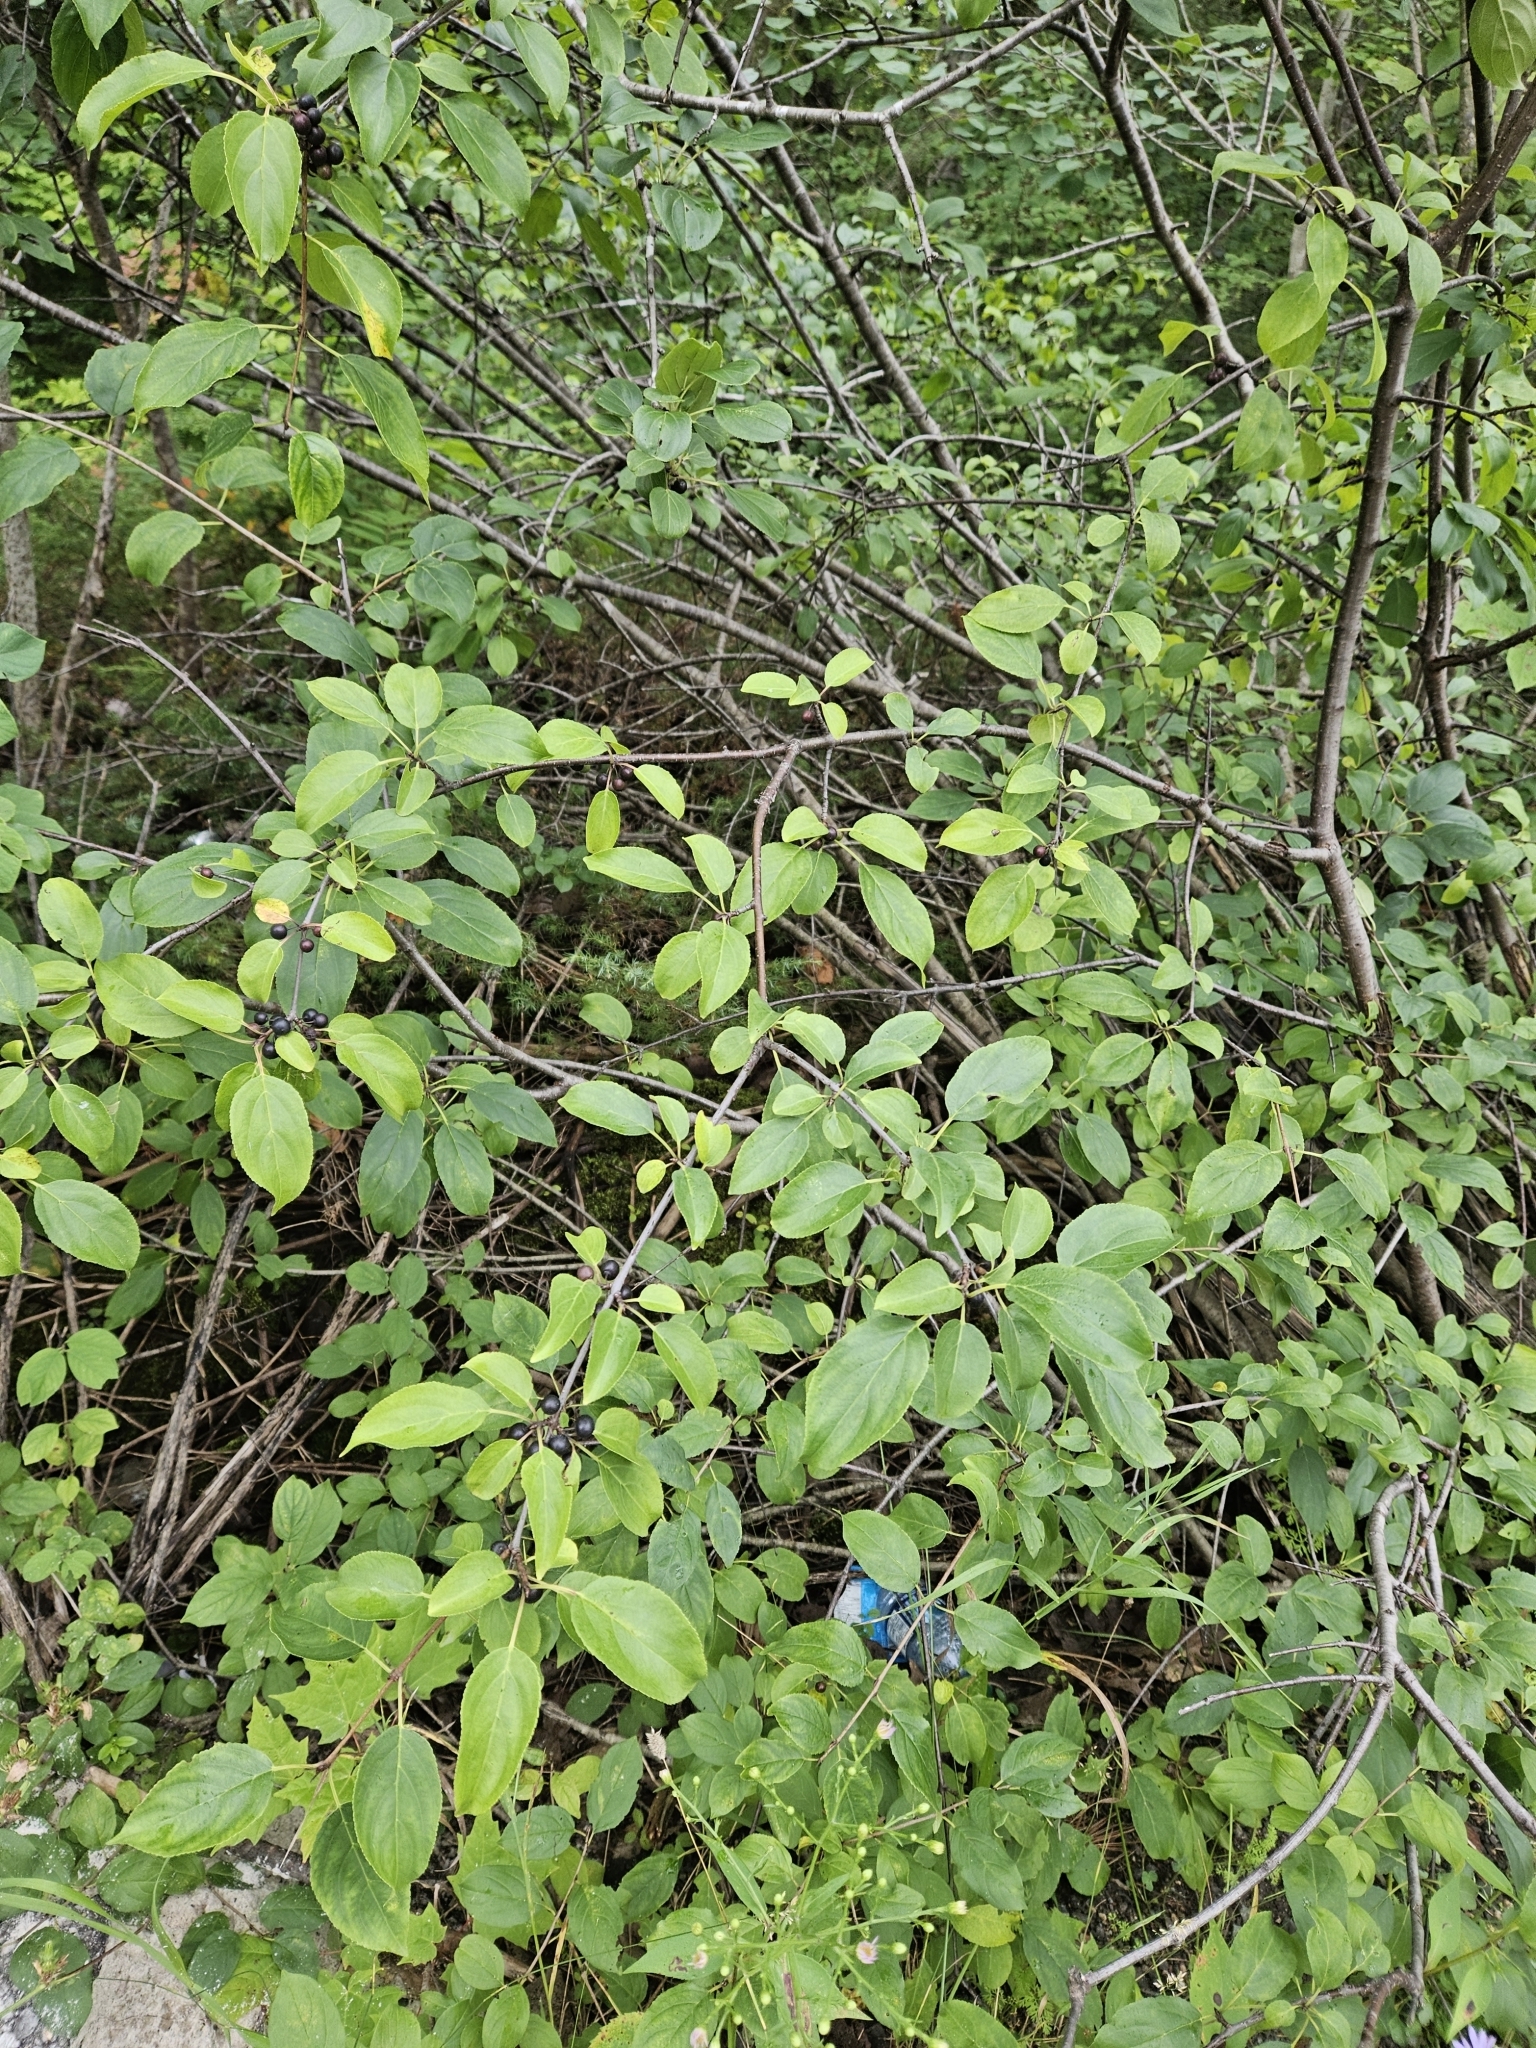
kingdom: Plantae
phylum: Tracheophyta
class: Magnoliopsida
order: Rosales
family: Rhamnaceae
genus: Rhamnus
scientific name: Rhamnus cathartica
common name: Common buckthorn
